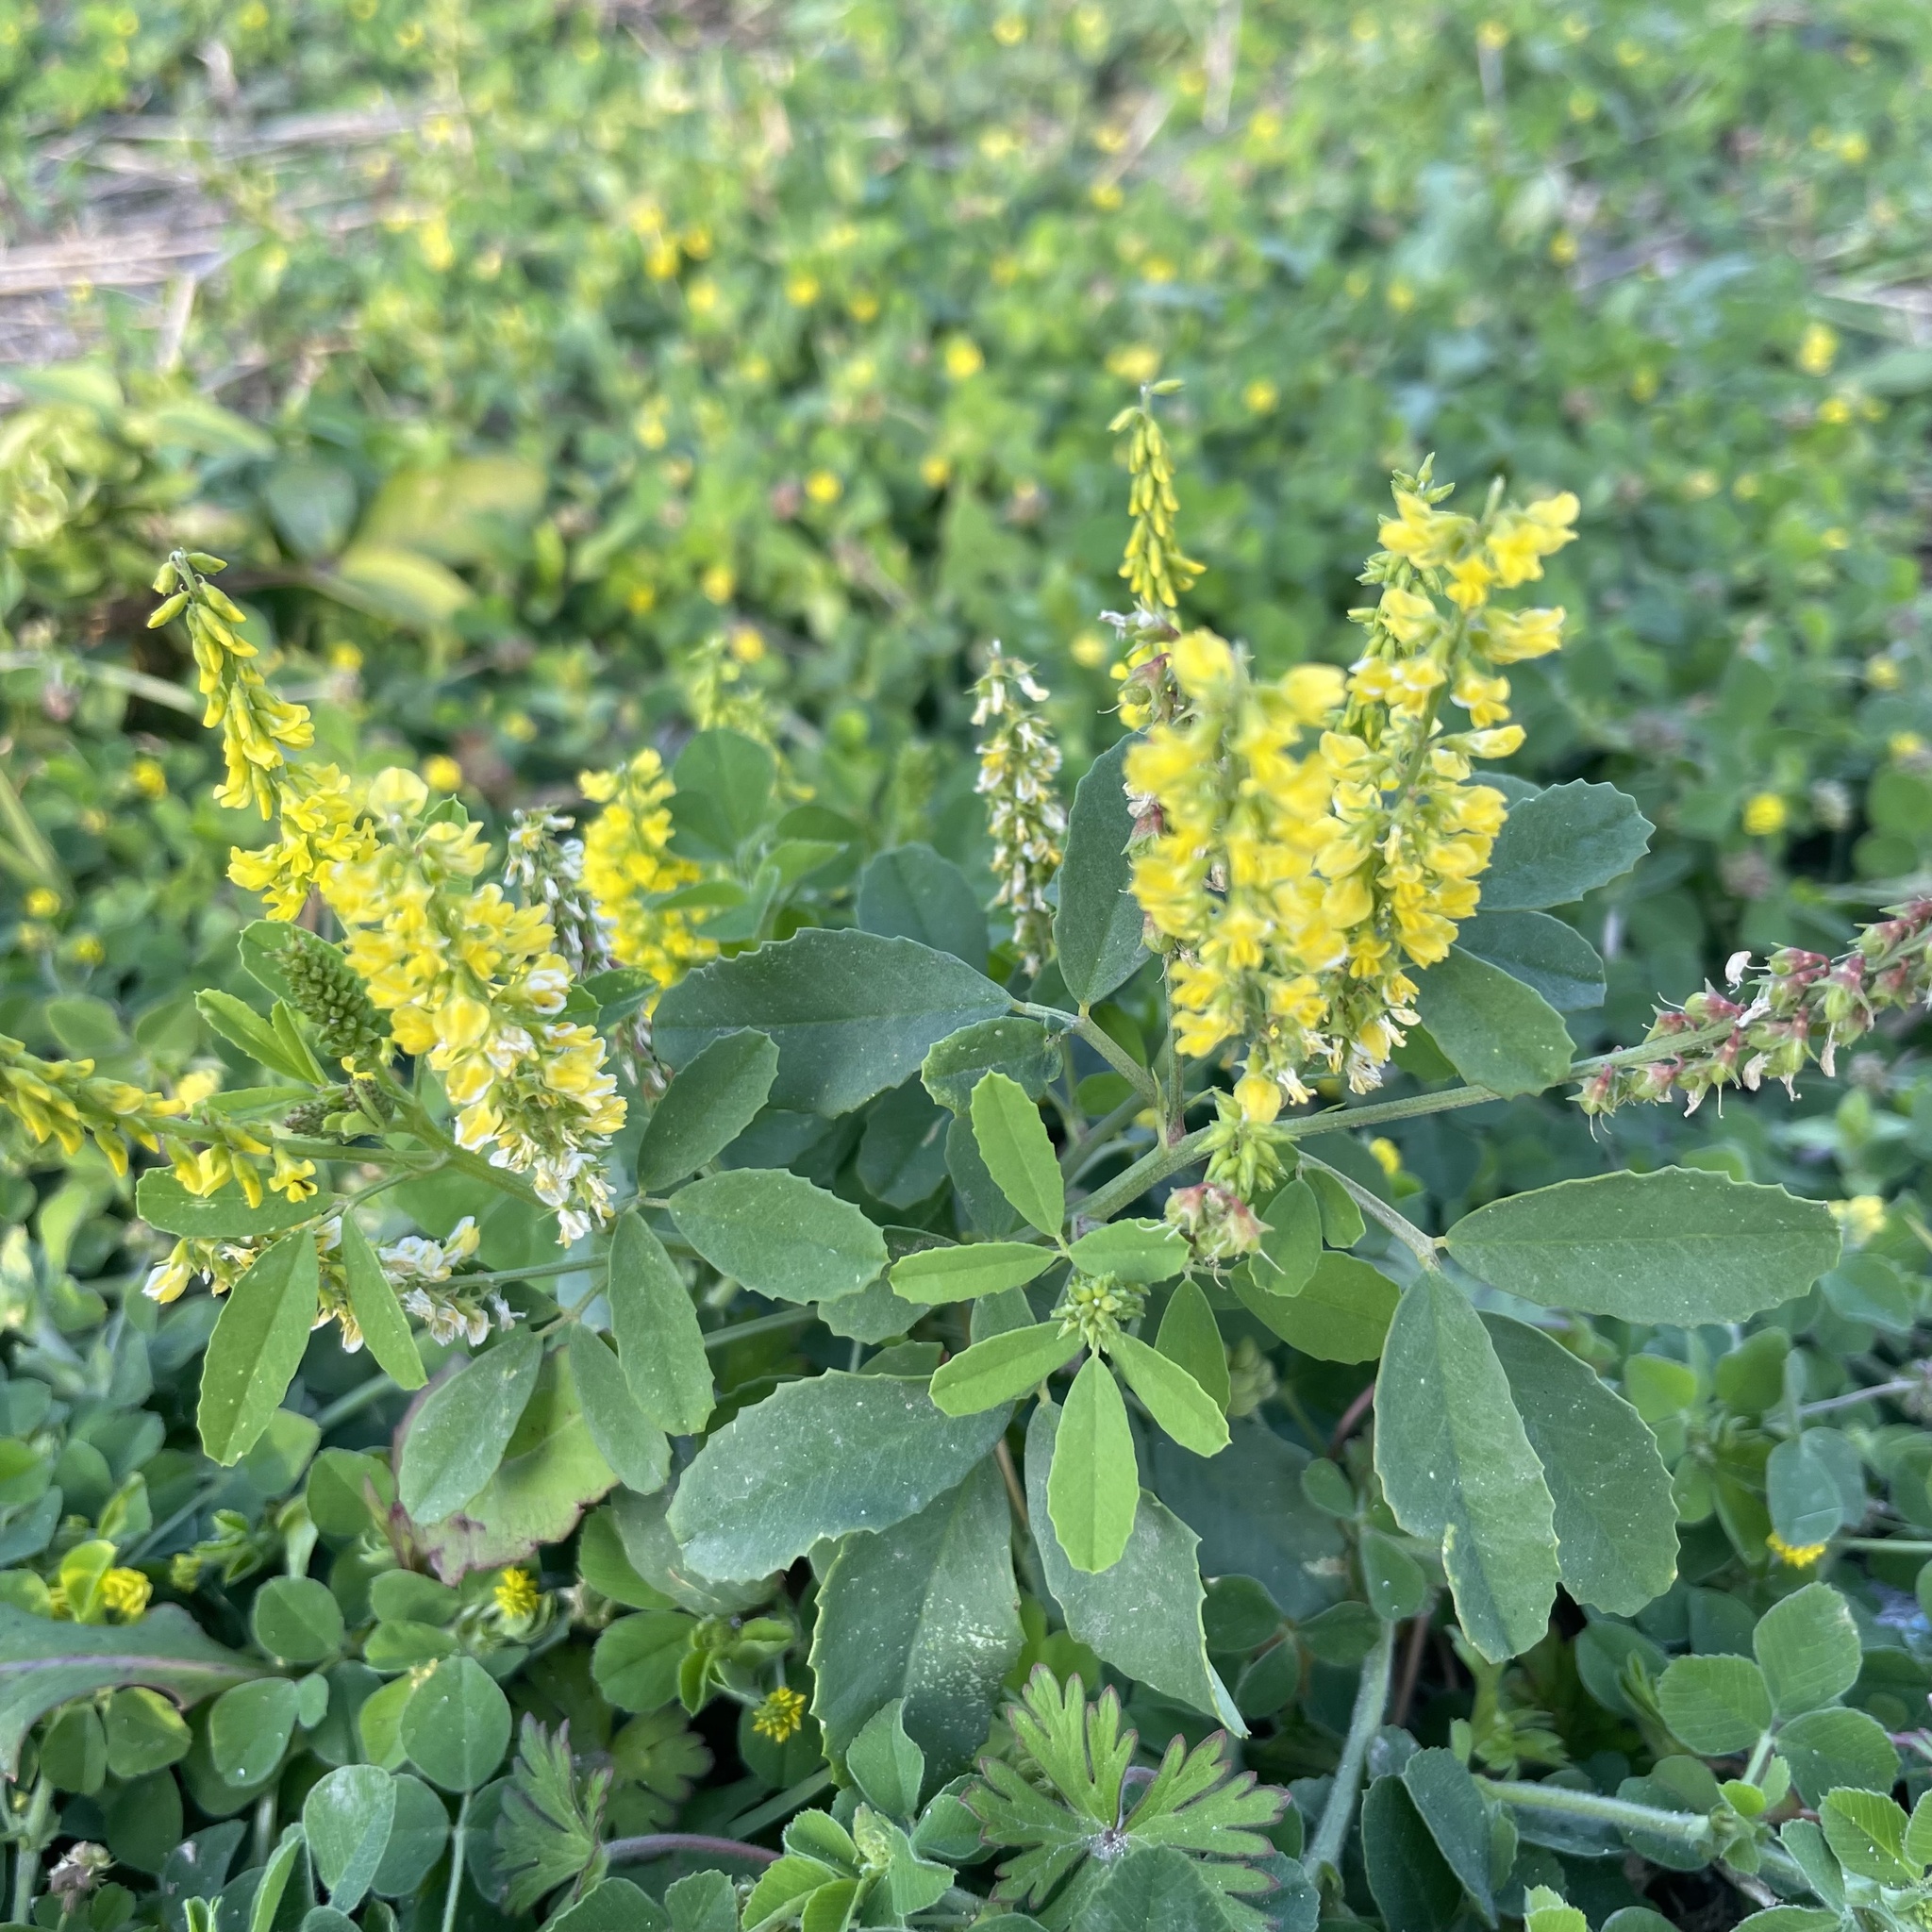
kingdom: Plantae
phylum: Tracheophyta
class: Magnoliopsida
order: Fabales
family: Fabaceae
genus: Melilotus
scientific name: Melilotus suaveolens
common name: Daghestan sweet-clover
